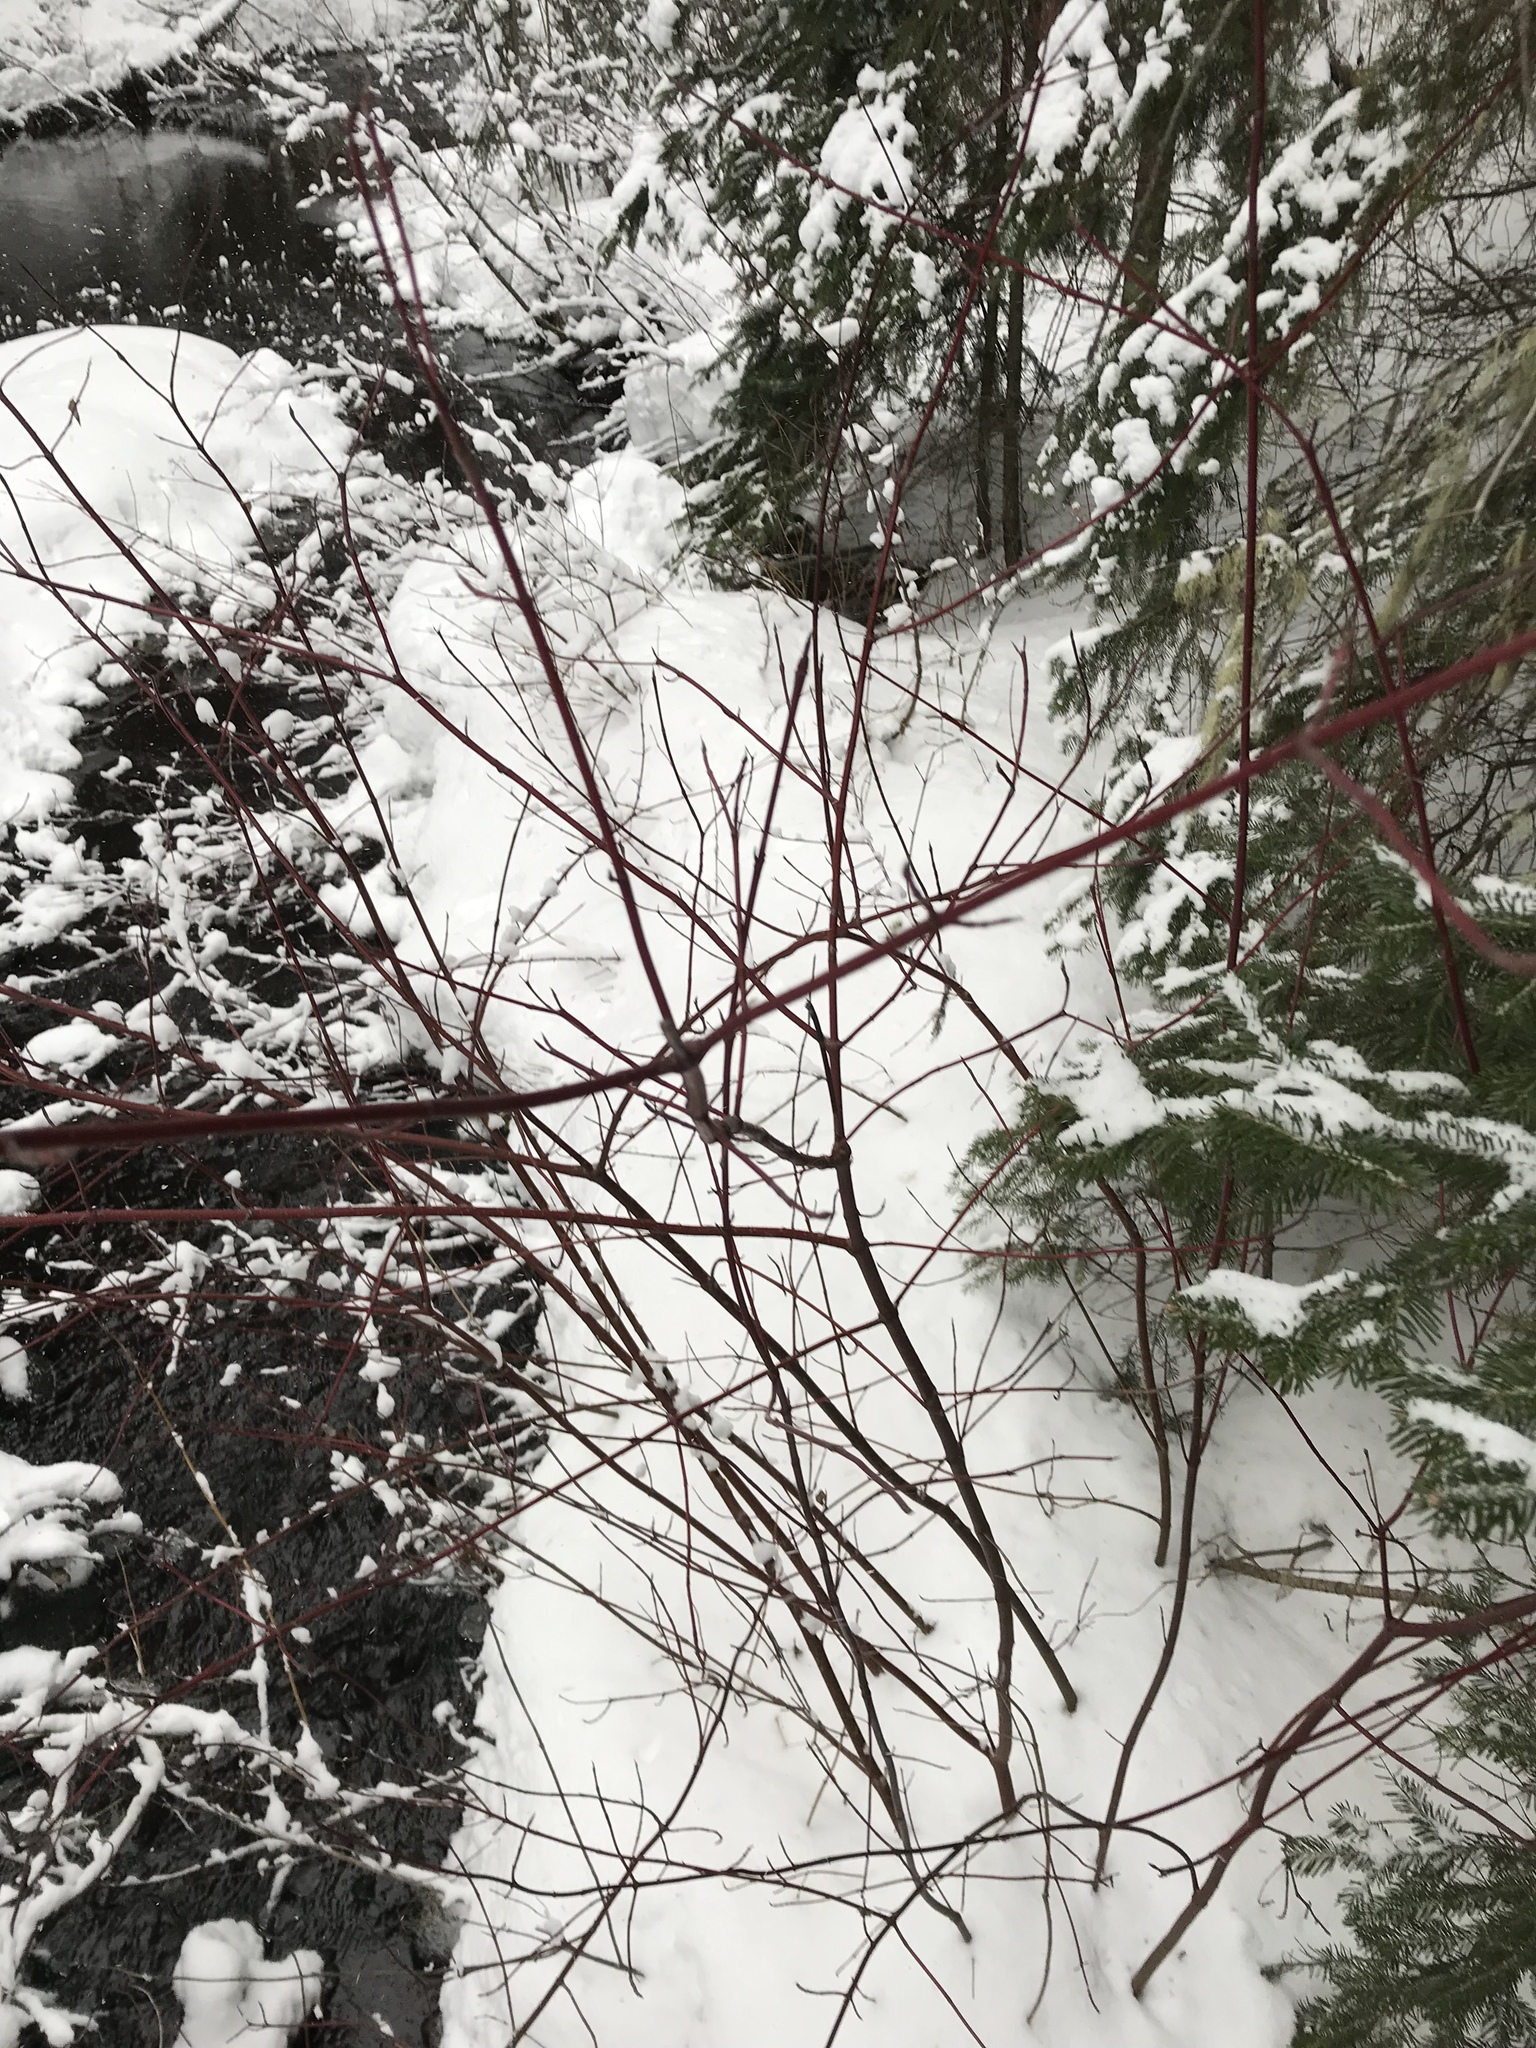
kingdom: Plantae
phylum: Tracheophyta
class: Magnoliopsida
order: Cornales
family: Cornaceae
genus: Cornus
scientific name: Cornus sericea
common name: Red-osier dogwood
